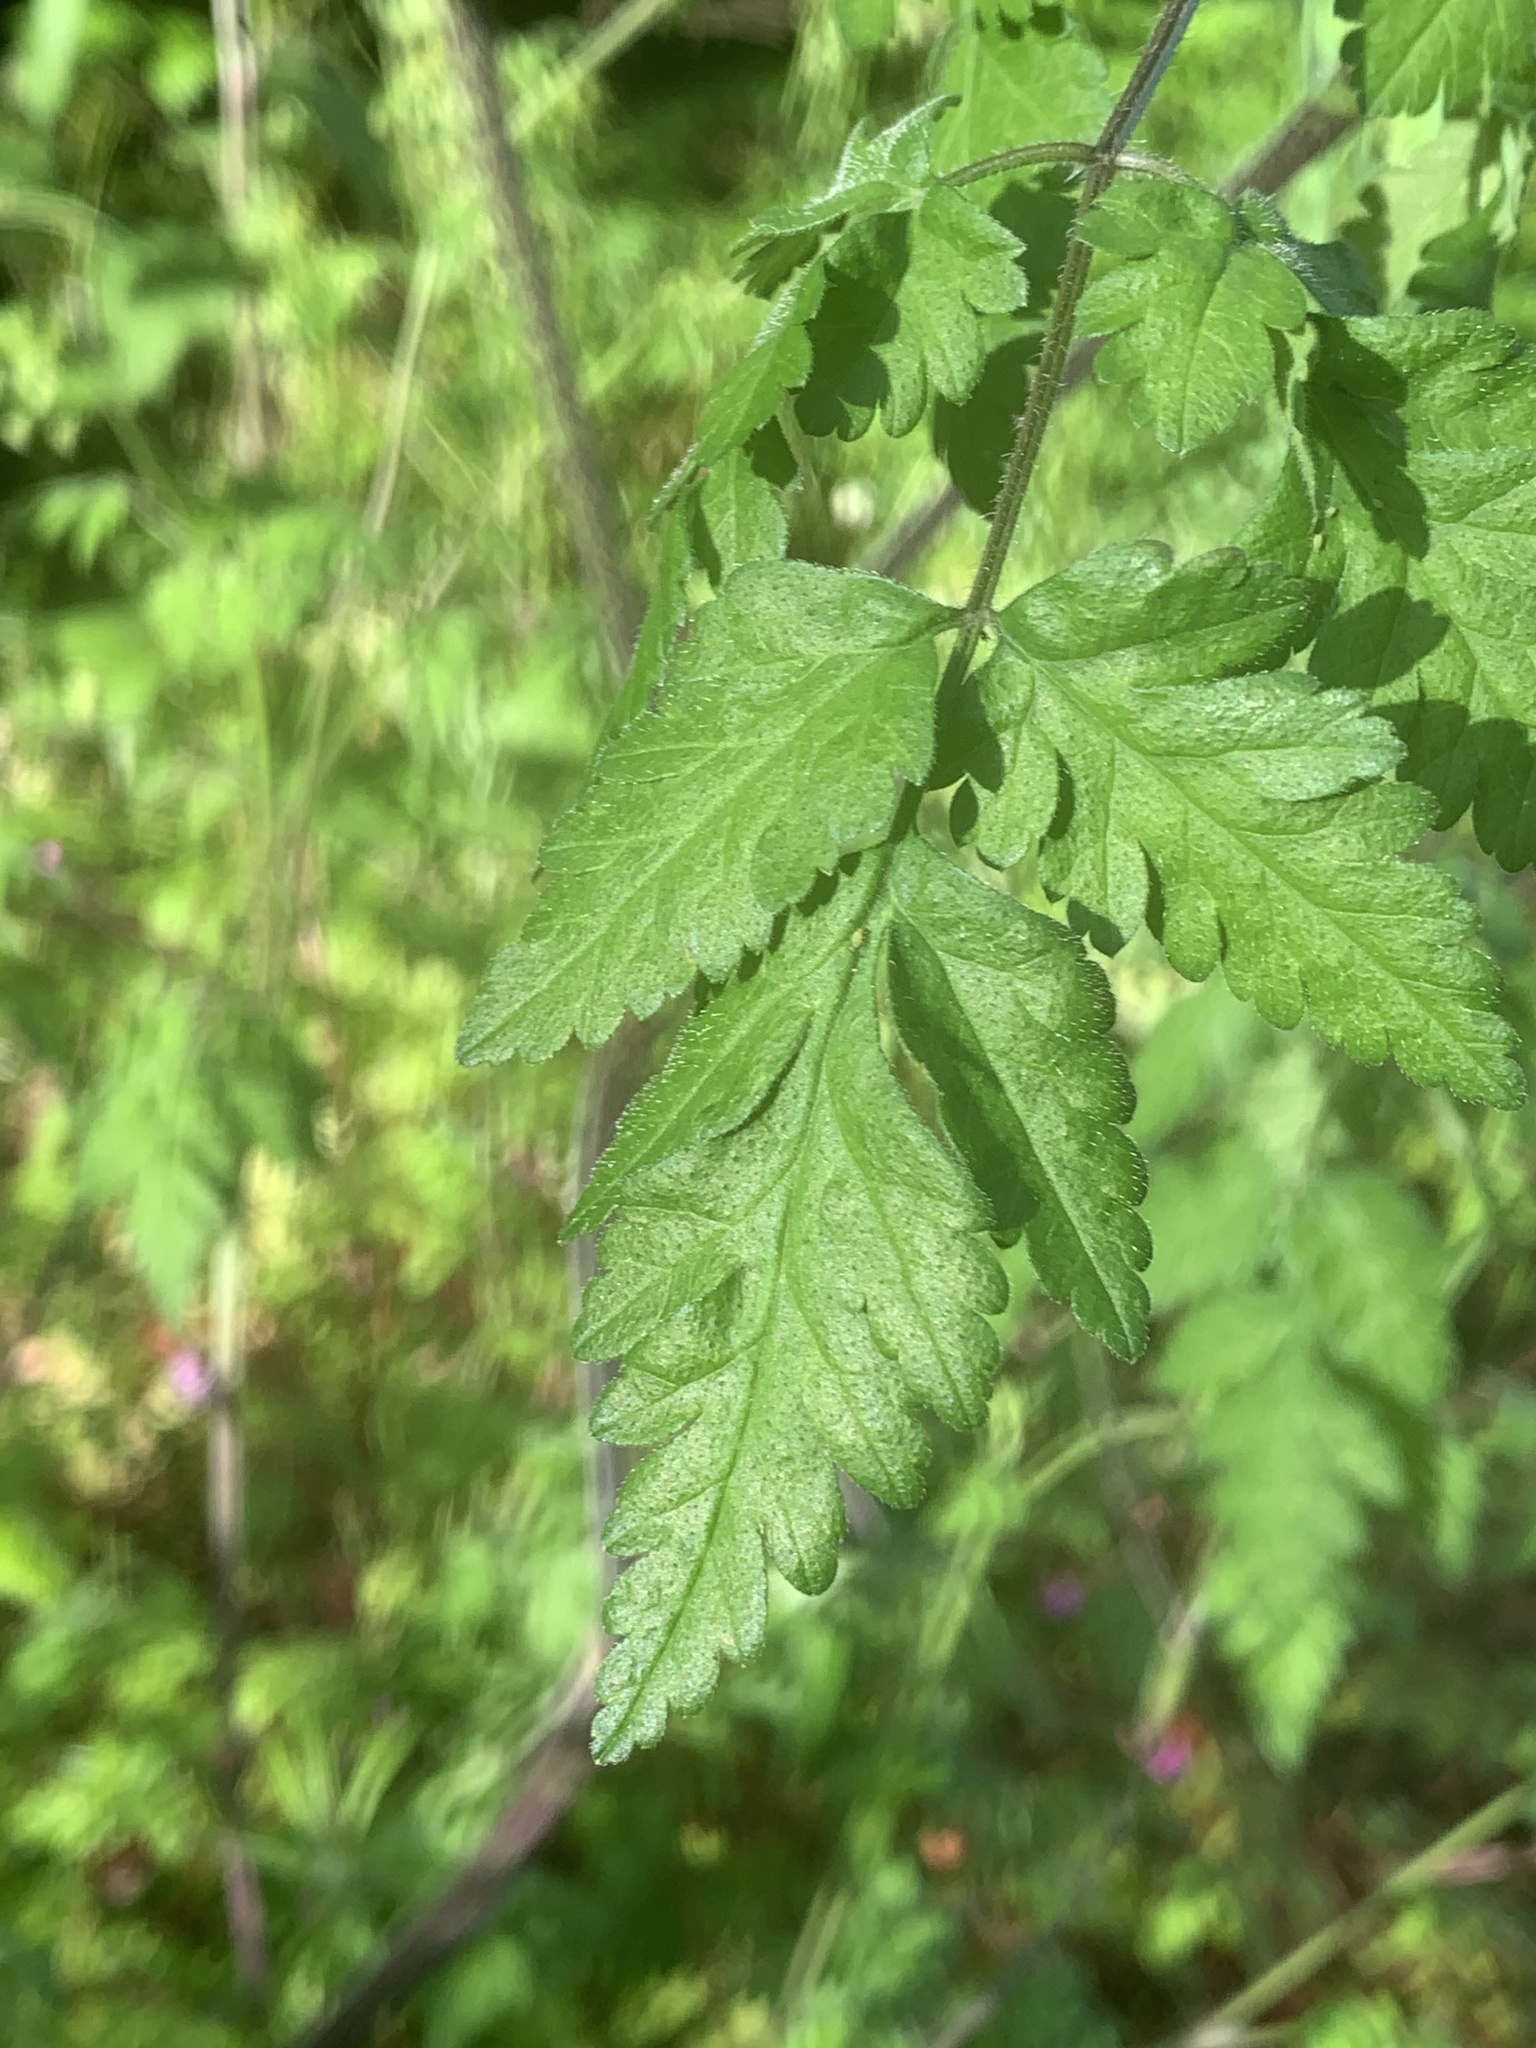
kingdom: Plantae
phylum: Tracheophyta
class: Magnoliopsida
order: Apiales
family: Apiaceae
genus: Chaerophyllum
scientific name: Chaerophyllum temulum
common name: Rough chervil
